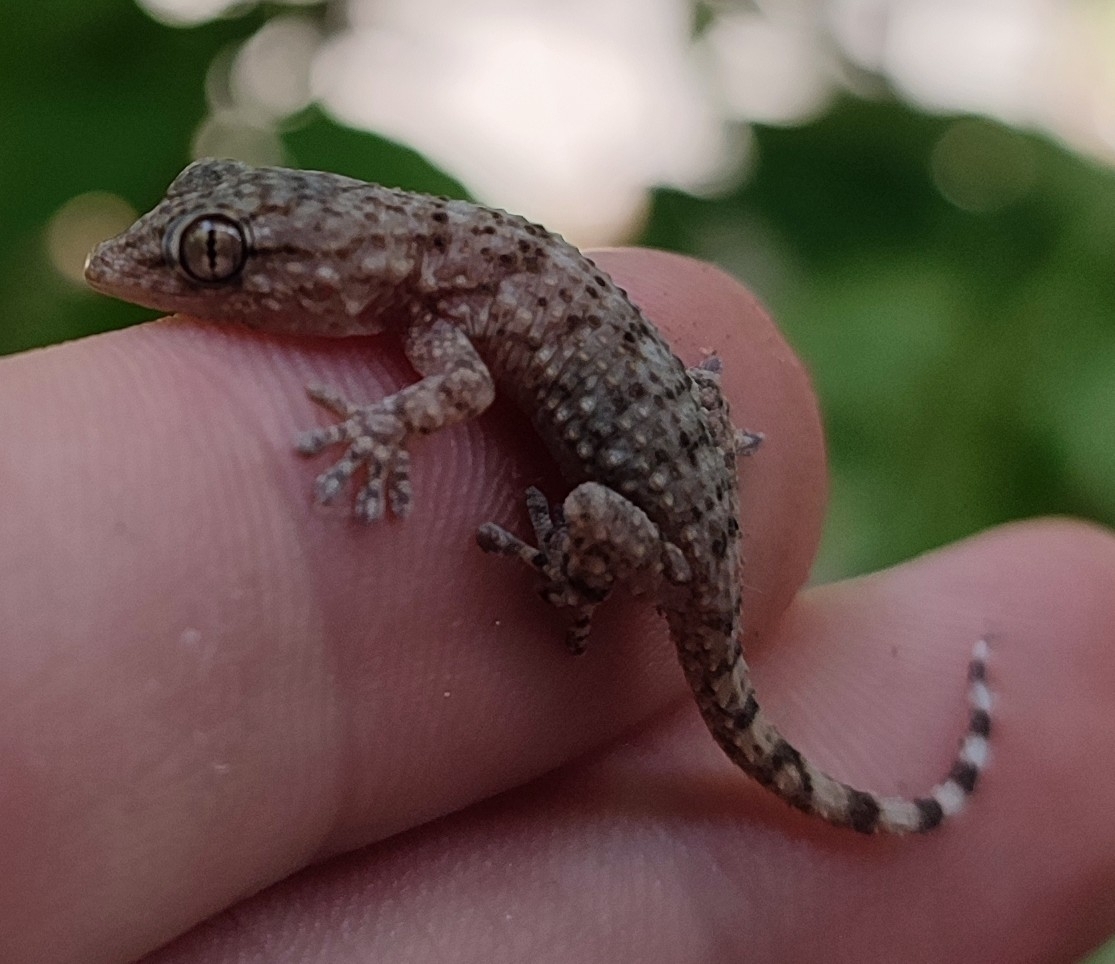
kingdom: Animalia
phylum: Chordata
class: Squamata
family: Phyllodactylidae
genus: Tarentola
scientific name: Tarentola mauritanica
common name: Moorish gecko
